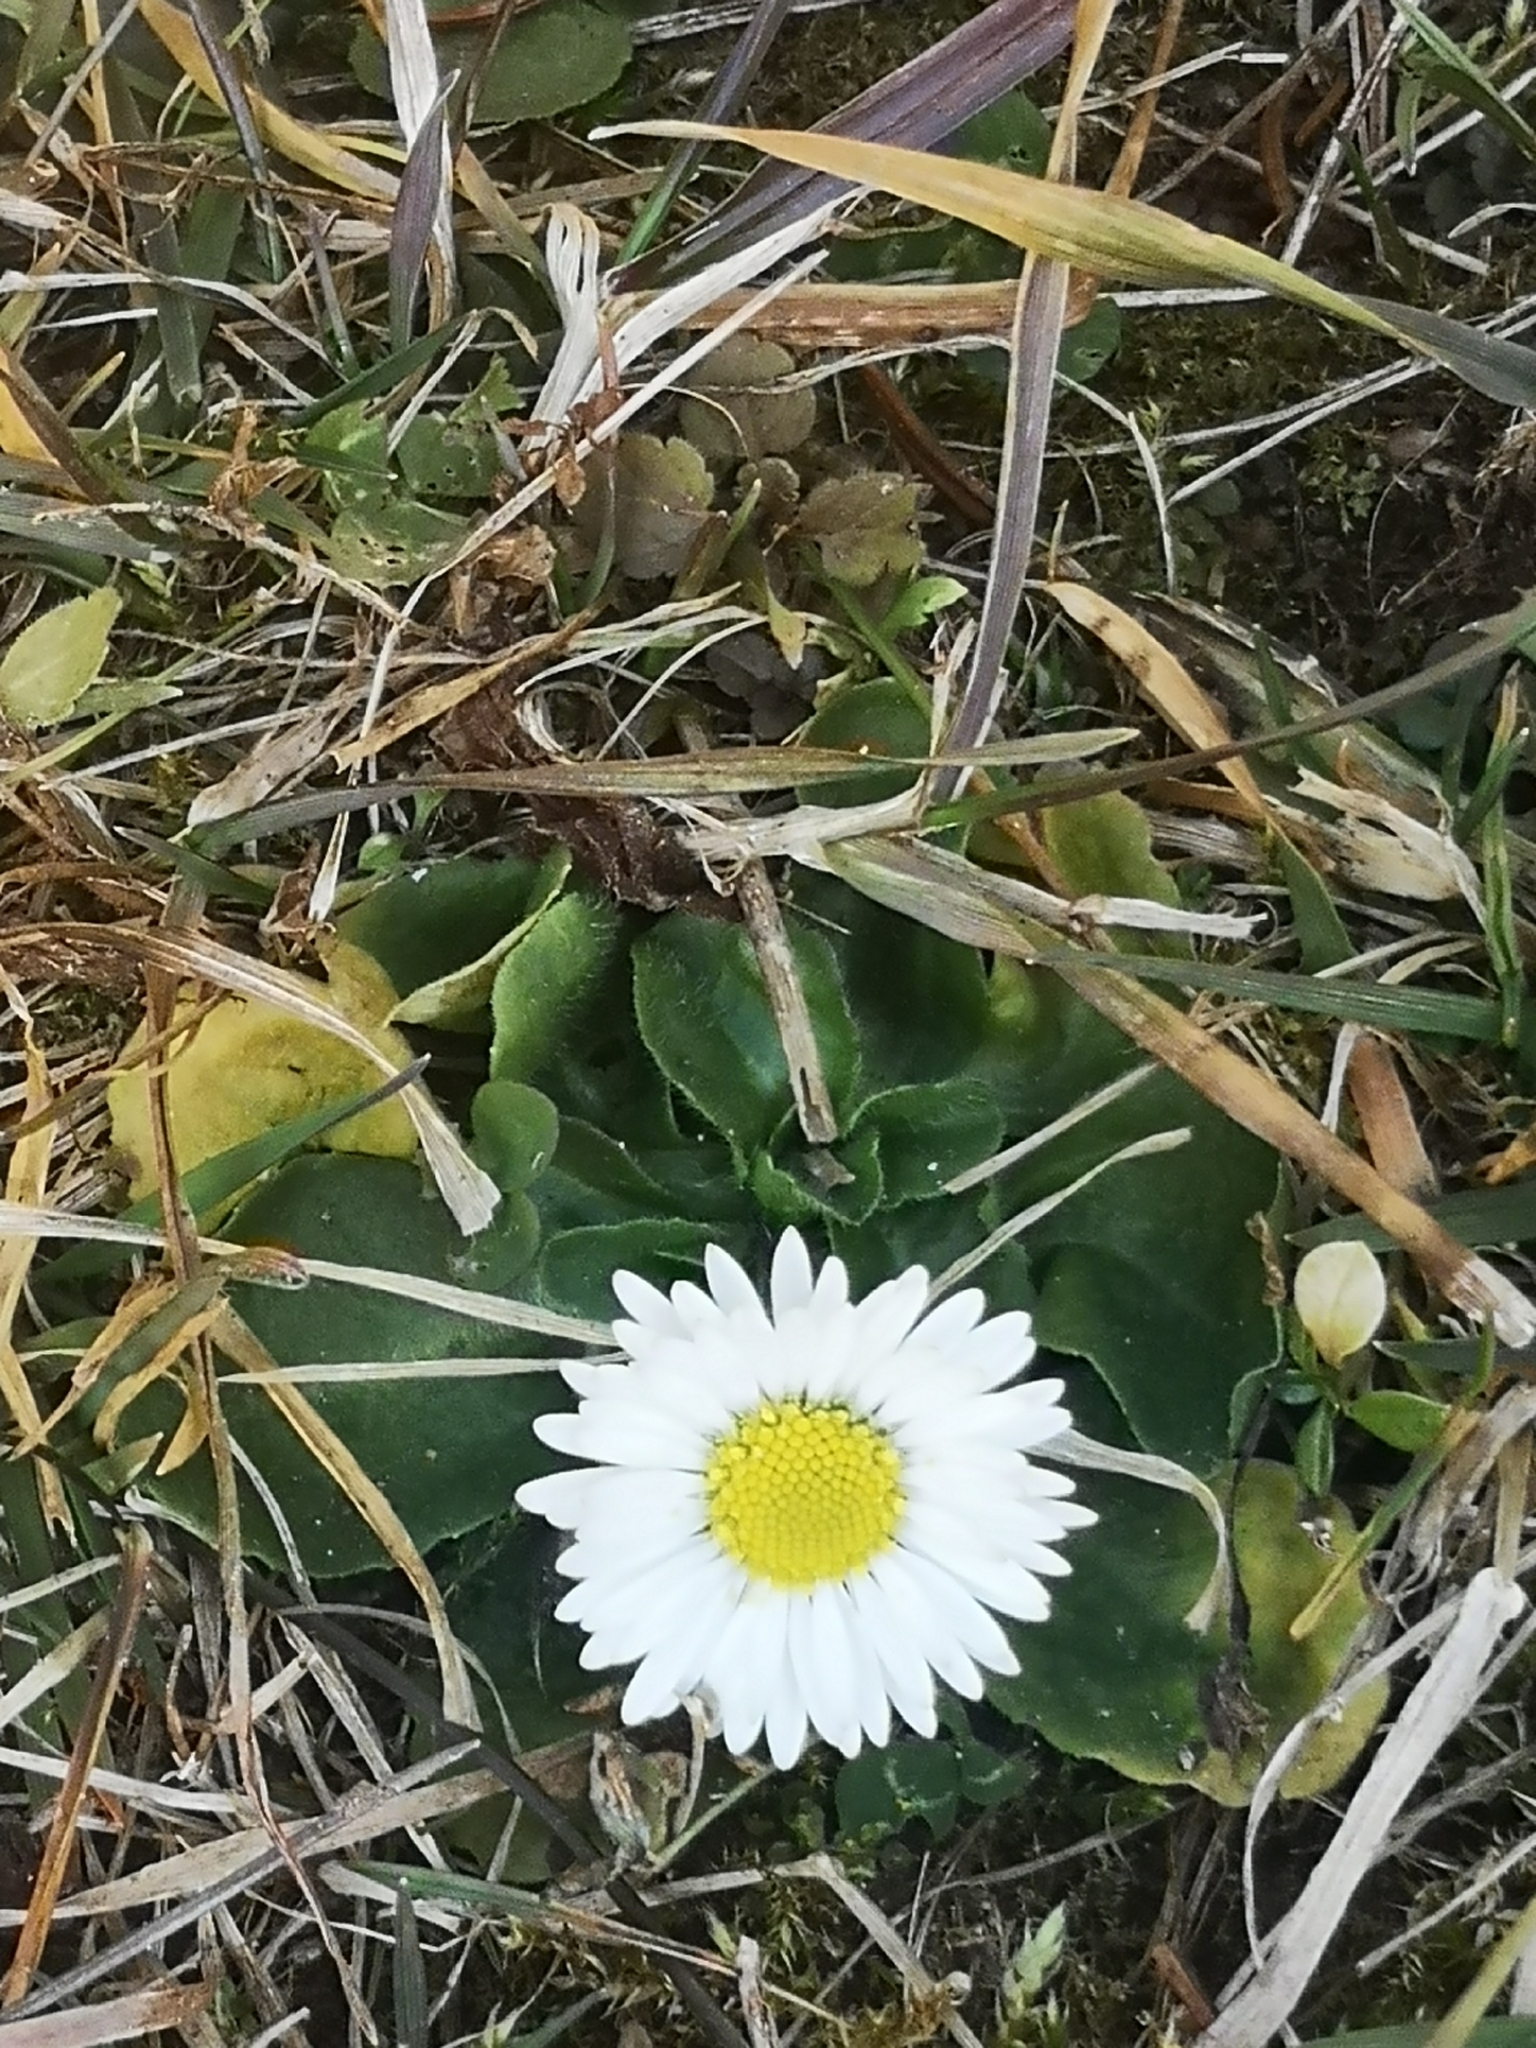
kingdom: Plantae
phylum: Tracheophyta
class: Magnoliopsida
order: Asterales
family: Asteraceae
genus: Bellis
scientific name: Bellis perennis
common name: Lawndaisy
